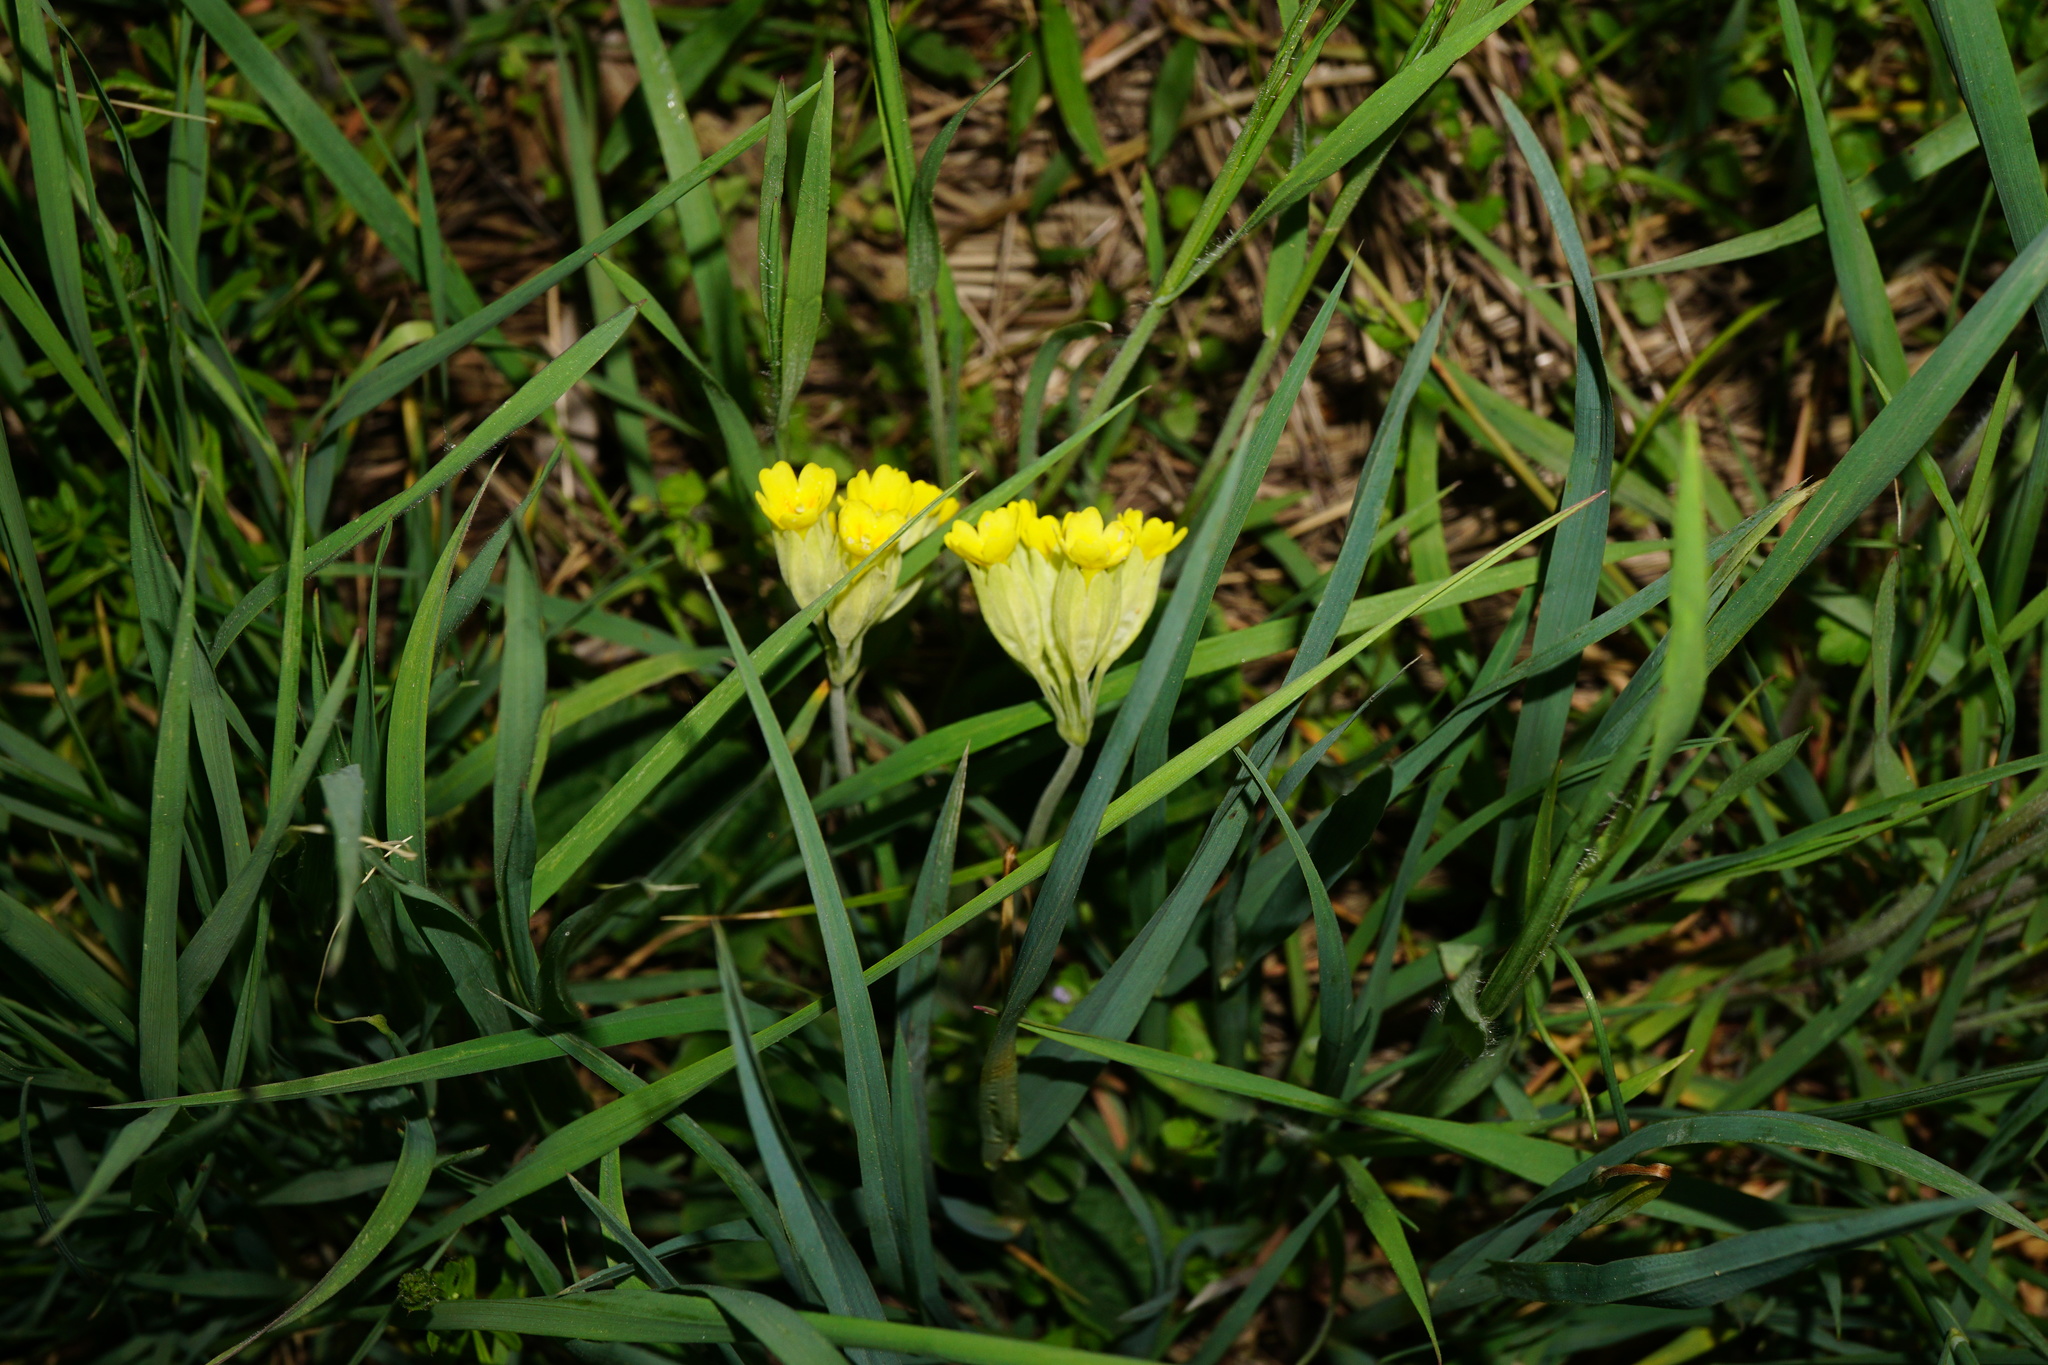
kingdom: Plantae
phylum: Tracheophyta
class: Magnoliopsida
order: Ericales
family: Primulaceae
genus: Primula
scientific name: Primula veris
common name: Cowslip
